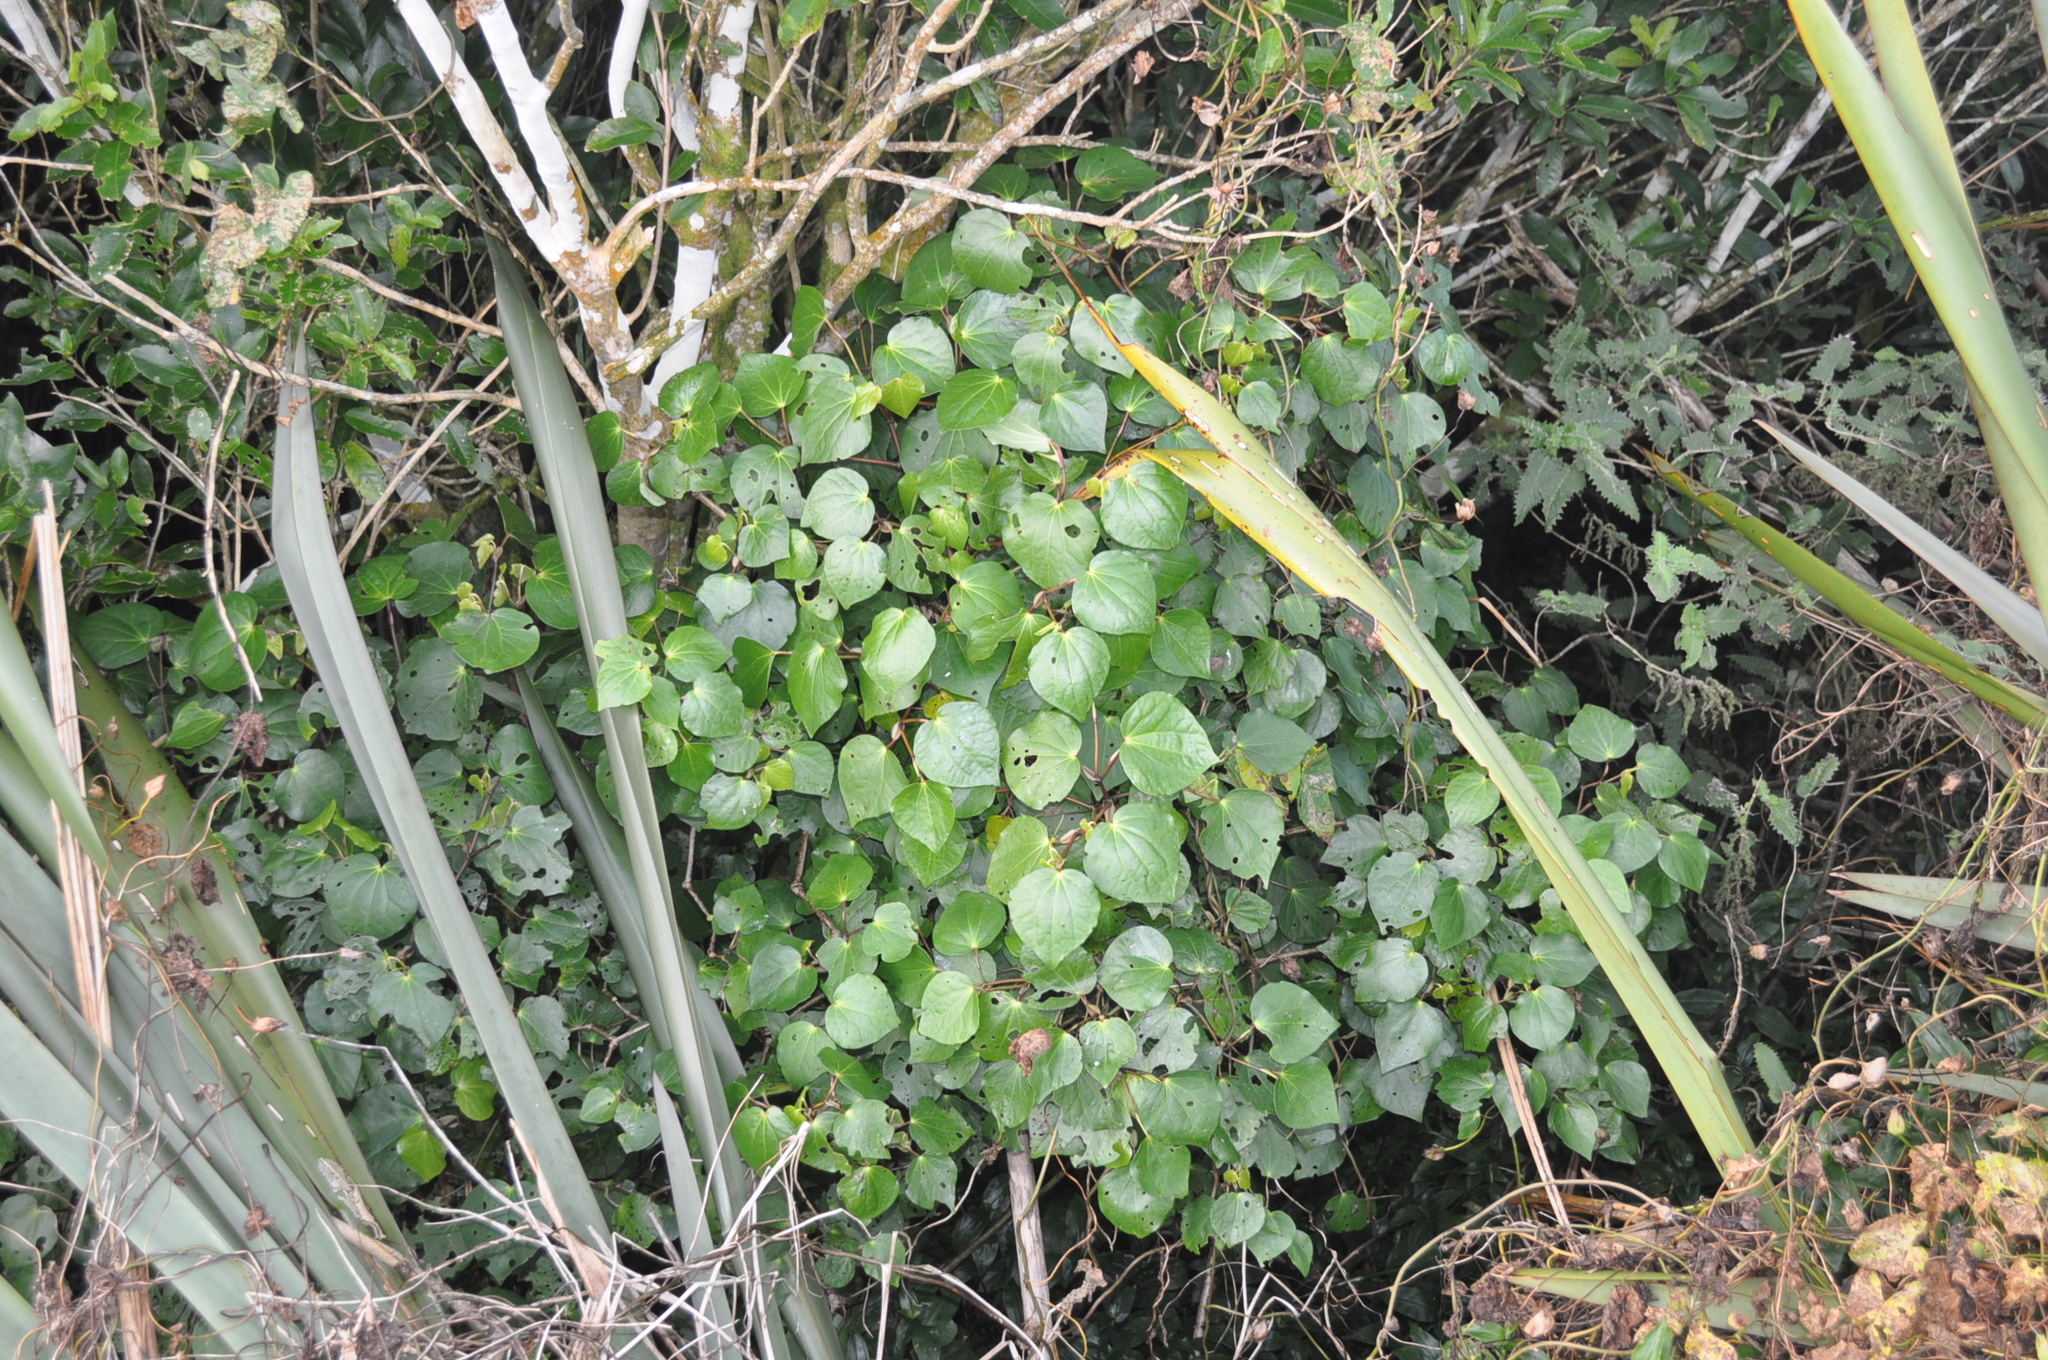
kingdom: Plantae
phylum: Tracheophyta
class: Magnoliopsida
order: Piperales
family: Piperaceae
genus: Macropiper
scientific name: Macropiper excelsum
